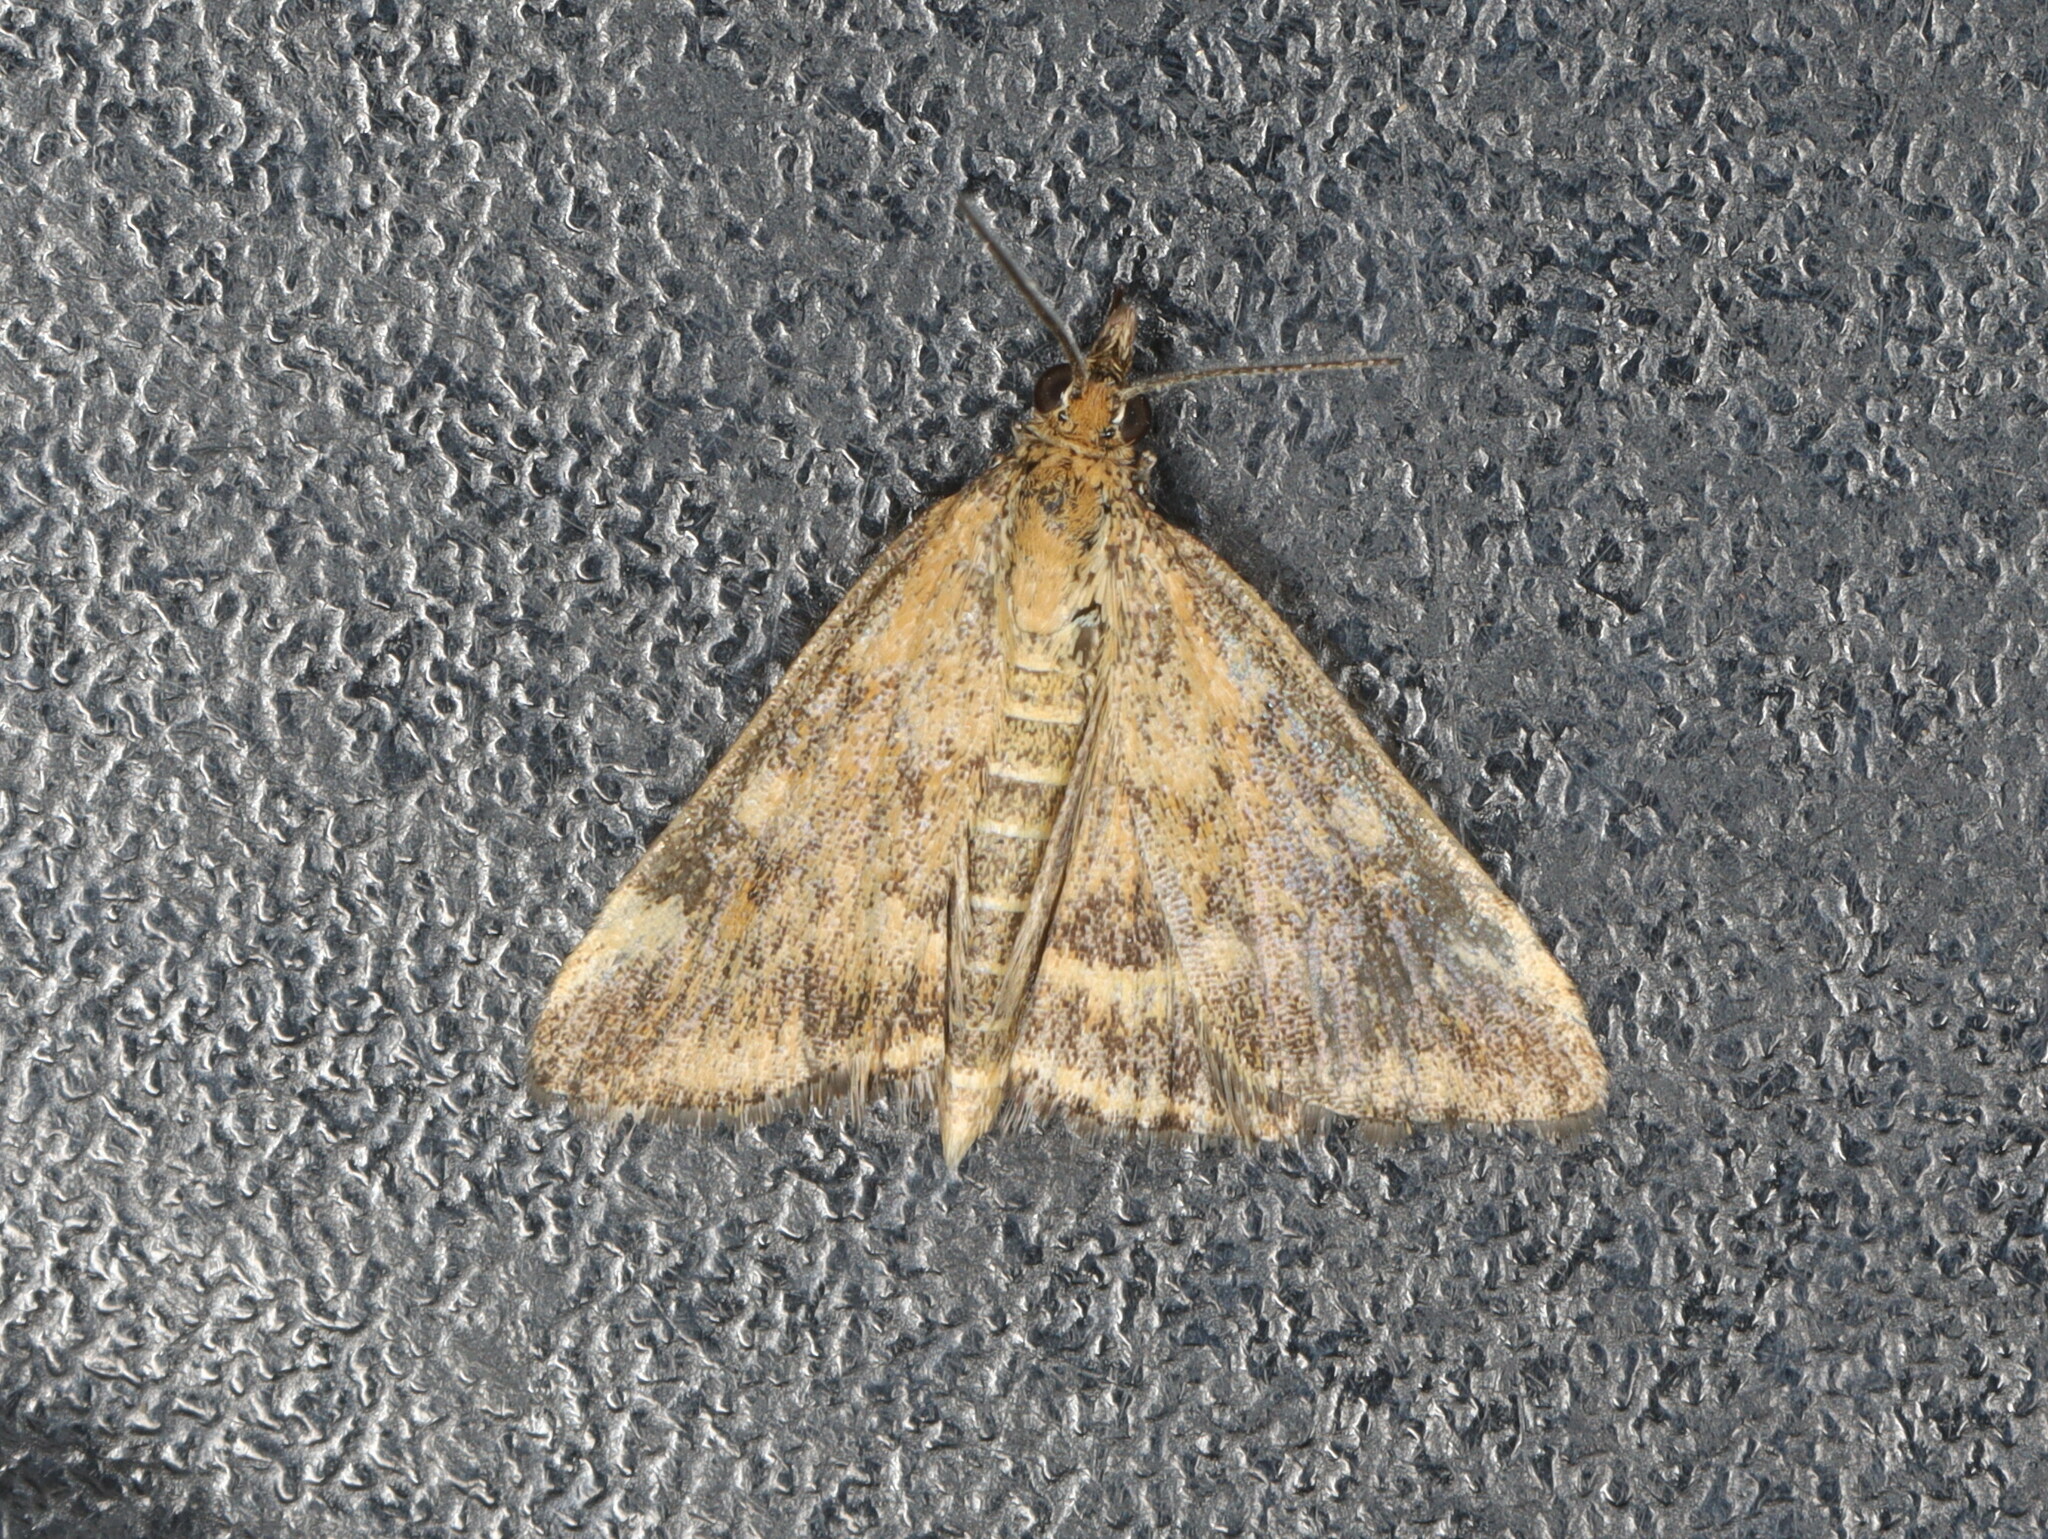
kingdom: Animalia
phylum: Arthropoda
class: Insecta
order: Lepidoptera
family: Crambidae
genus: Pyrausta
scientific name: Pyrausta despicata
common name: Straw-barred pearl
